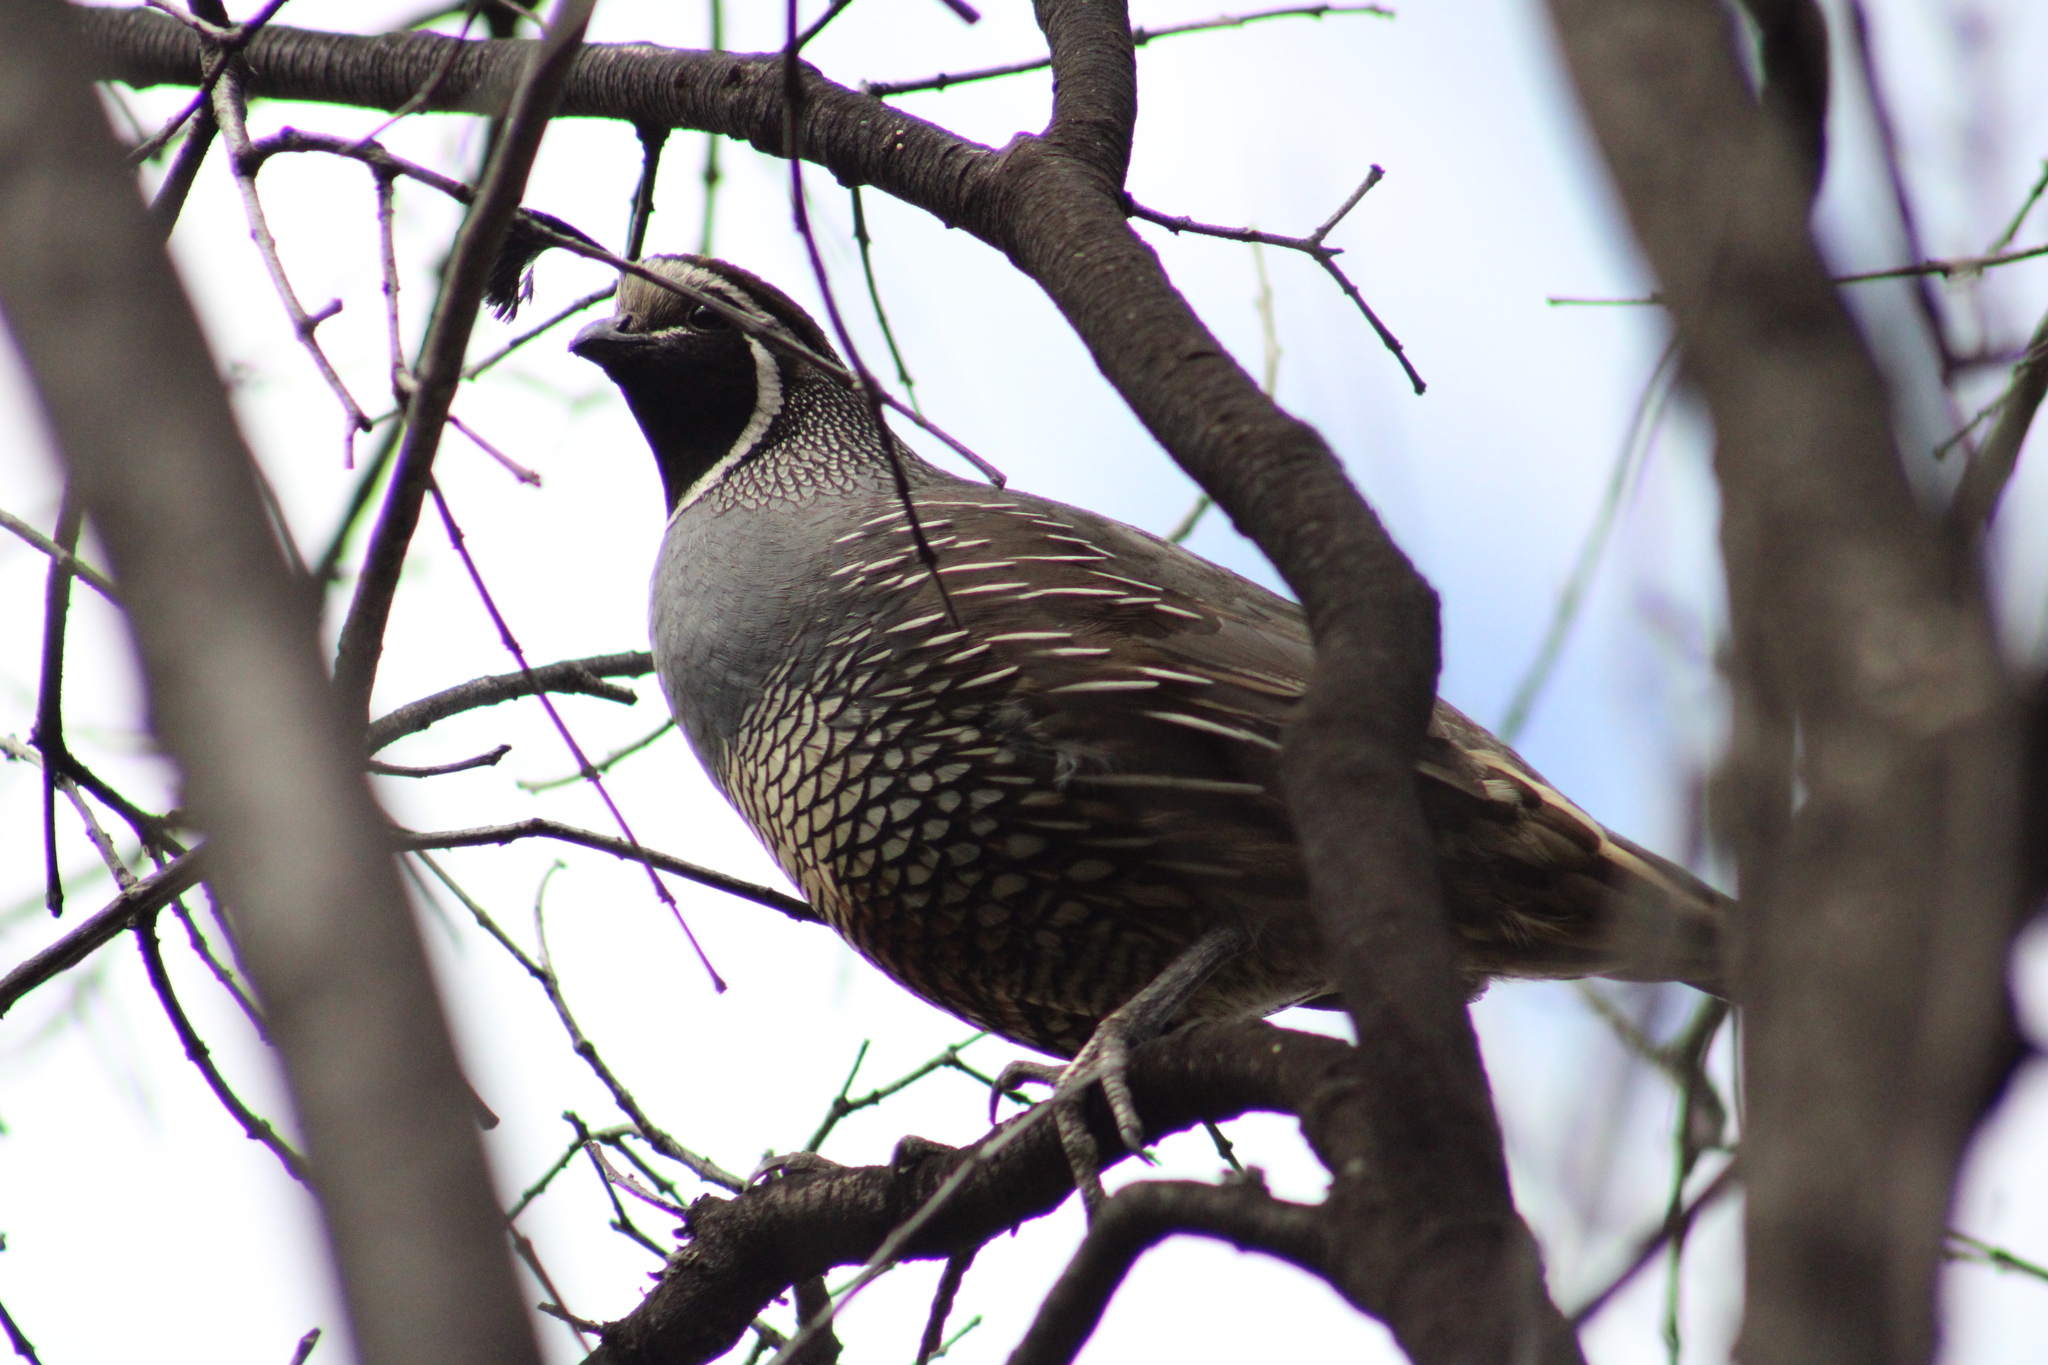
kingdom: Animalia
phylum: Chordata
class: Aves
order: Galliformes
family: Odontophoridae
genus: Callipepla
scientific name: Callipepla californica
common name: California quail
